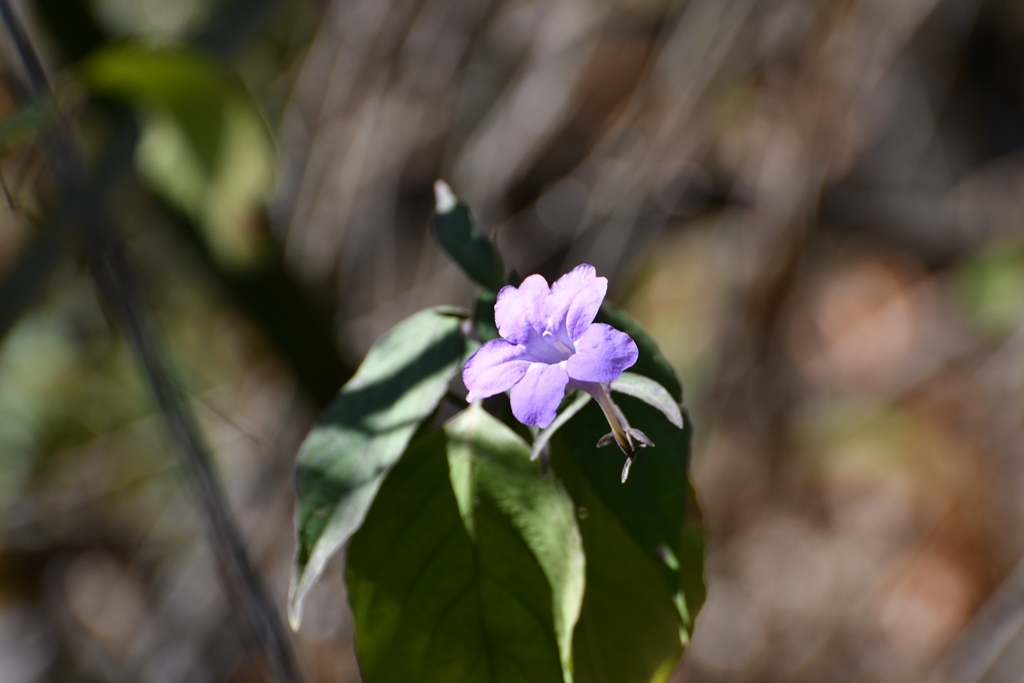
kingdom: Plantae
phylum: Tracheophyta
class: Magnoliopsida
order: Lamiales
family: Acanthaceae
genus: Ruellia
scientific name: Ruellia breedlovei
